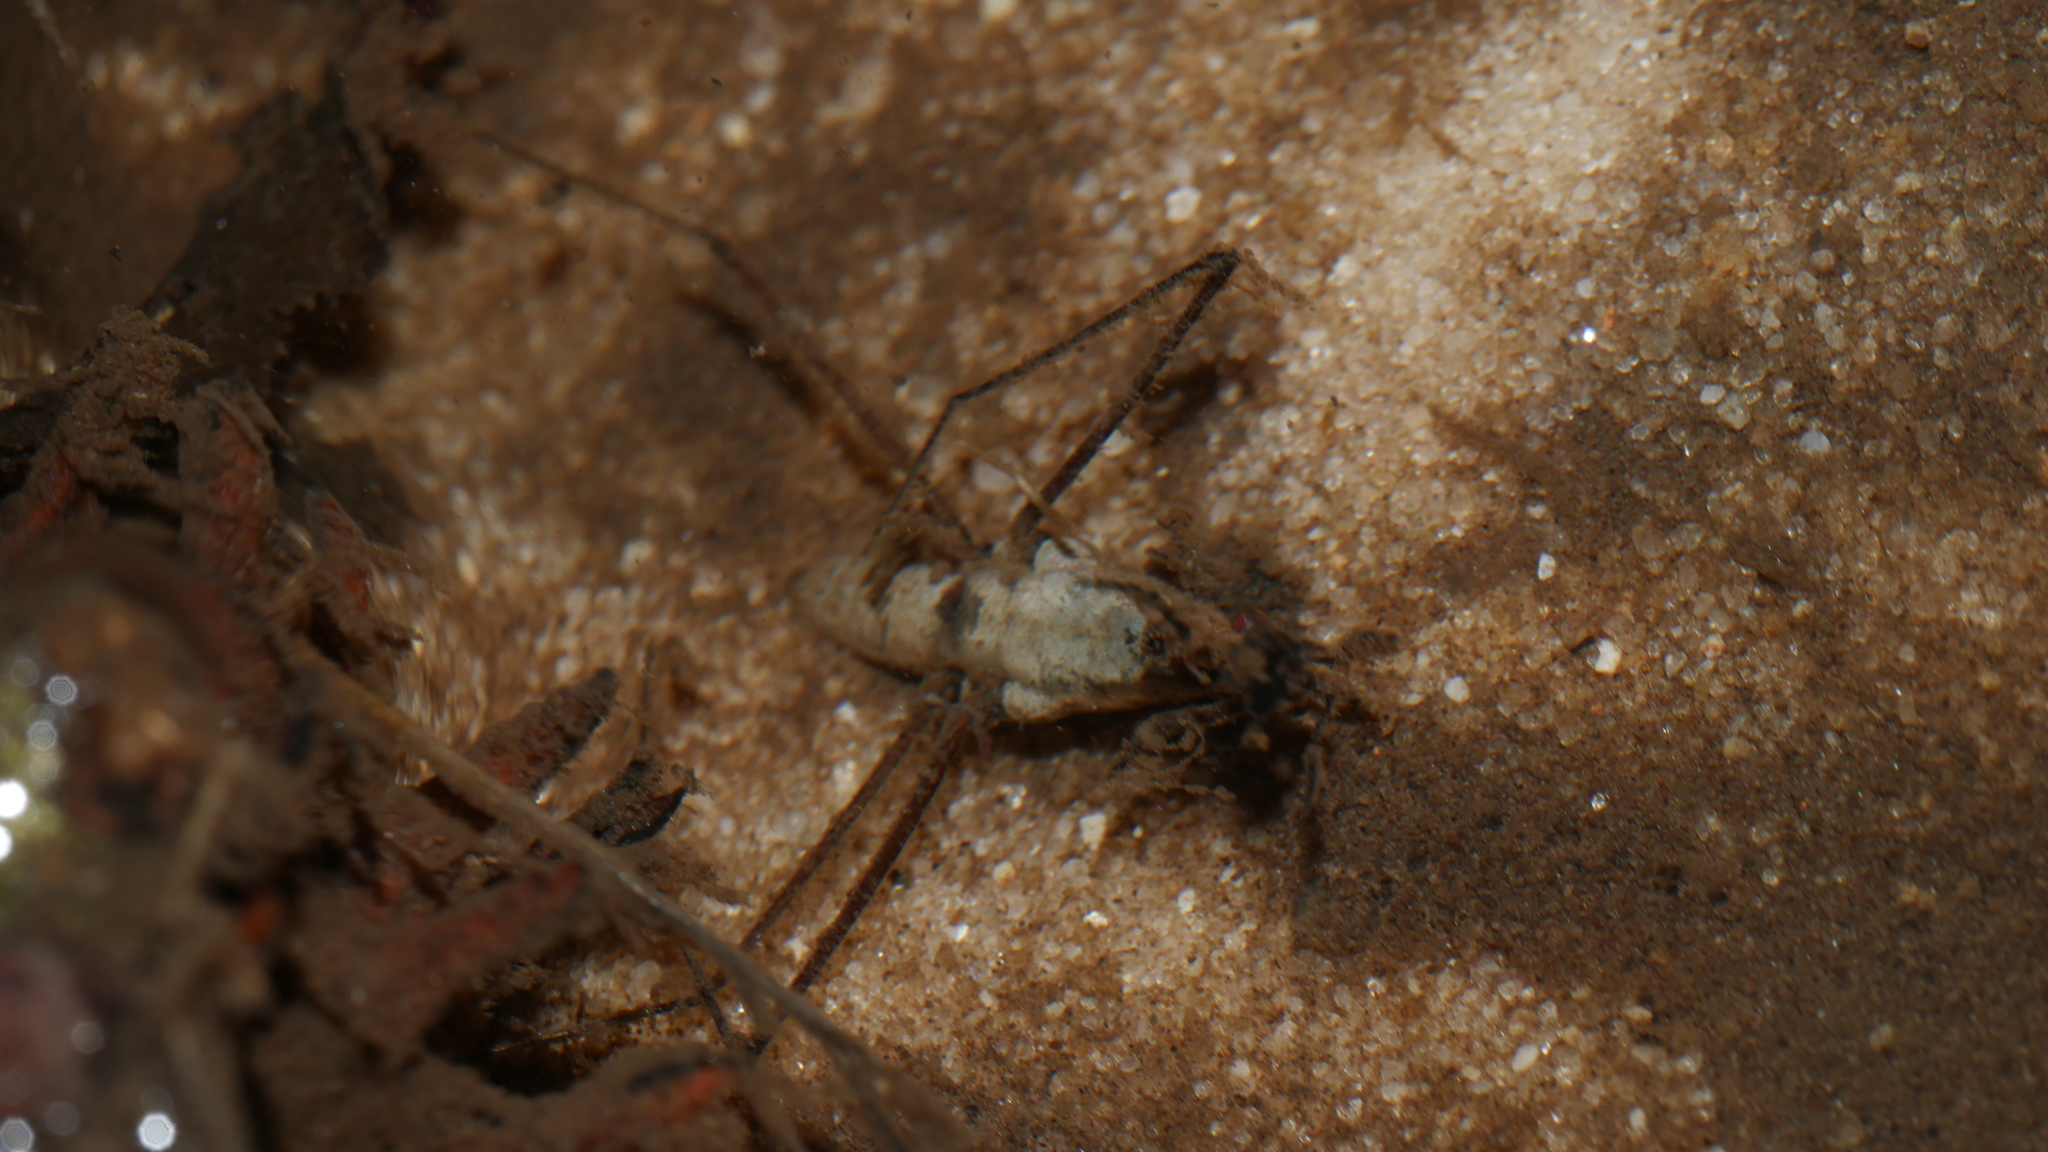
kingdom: Animalia
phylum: Arthropoda
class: Insecta
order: Hemiptera
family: Gerridae
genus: Aquarius
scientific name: Aquarius
